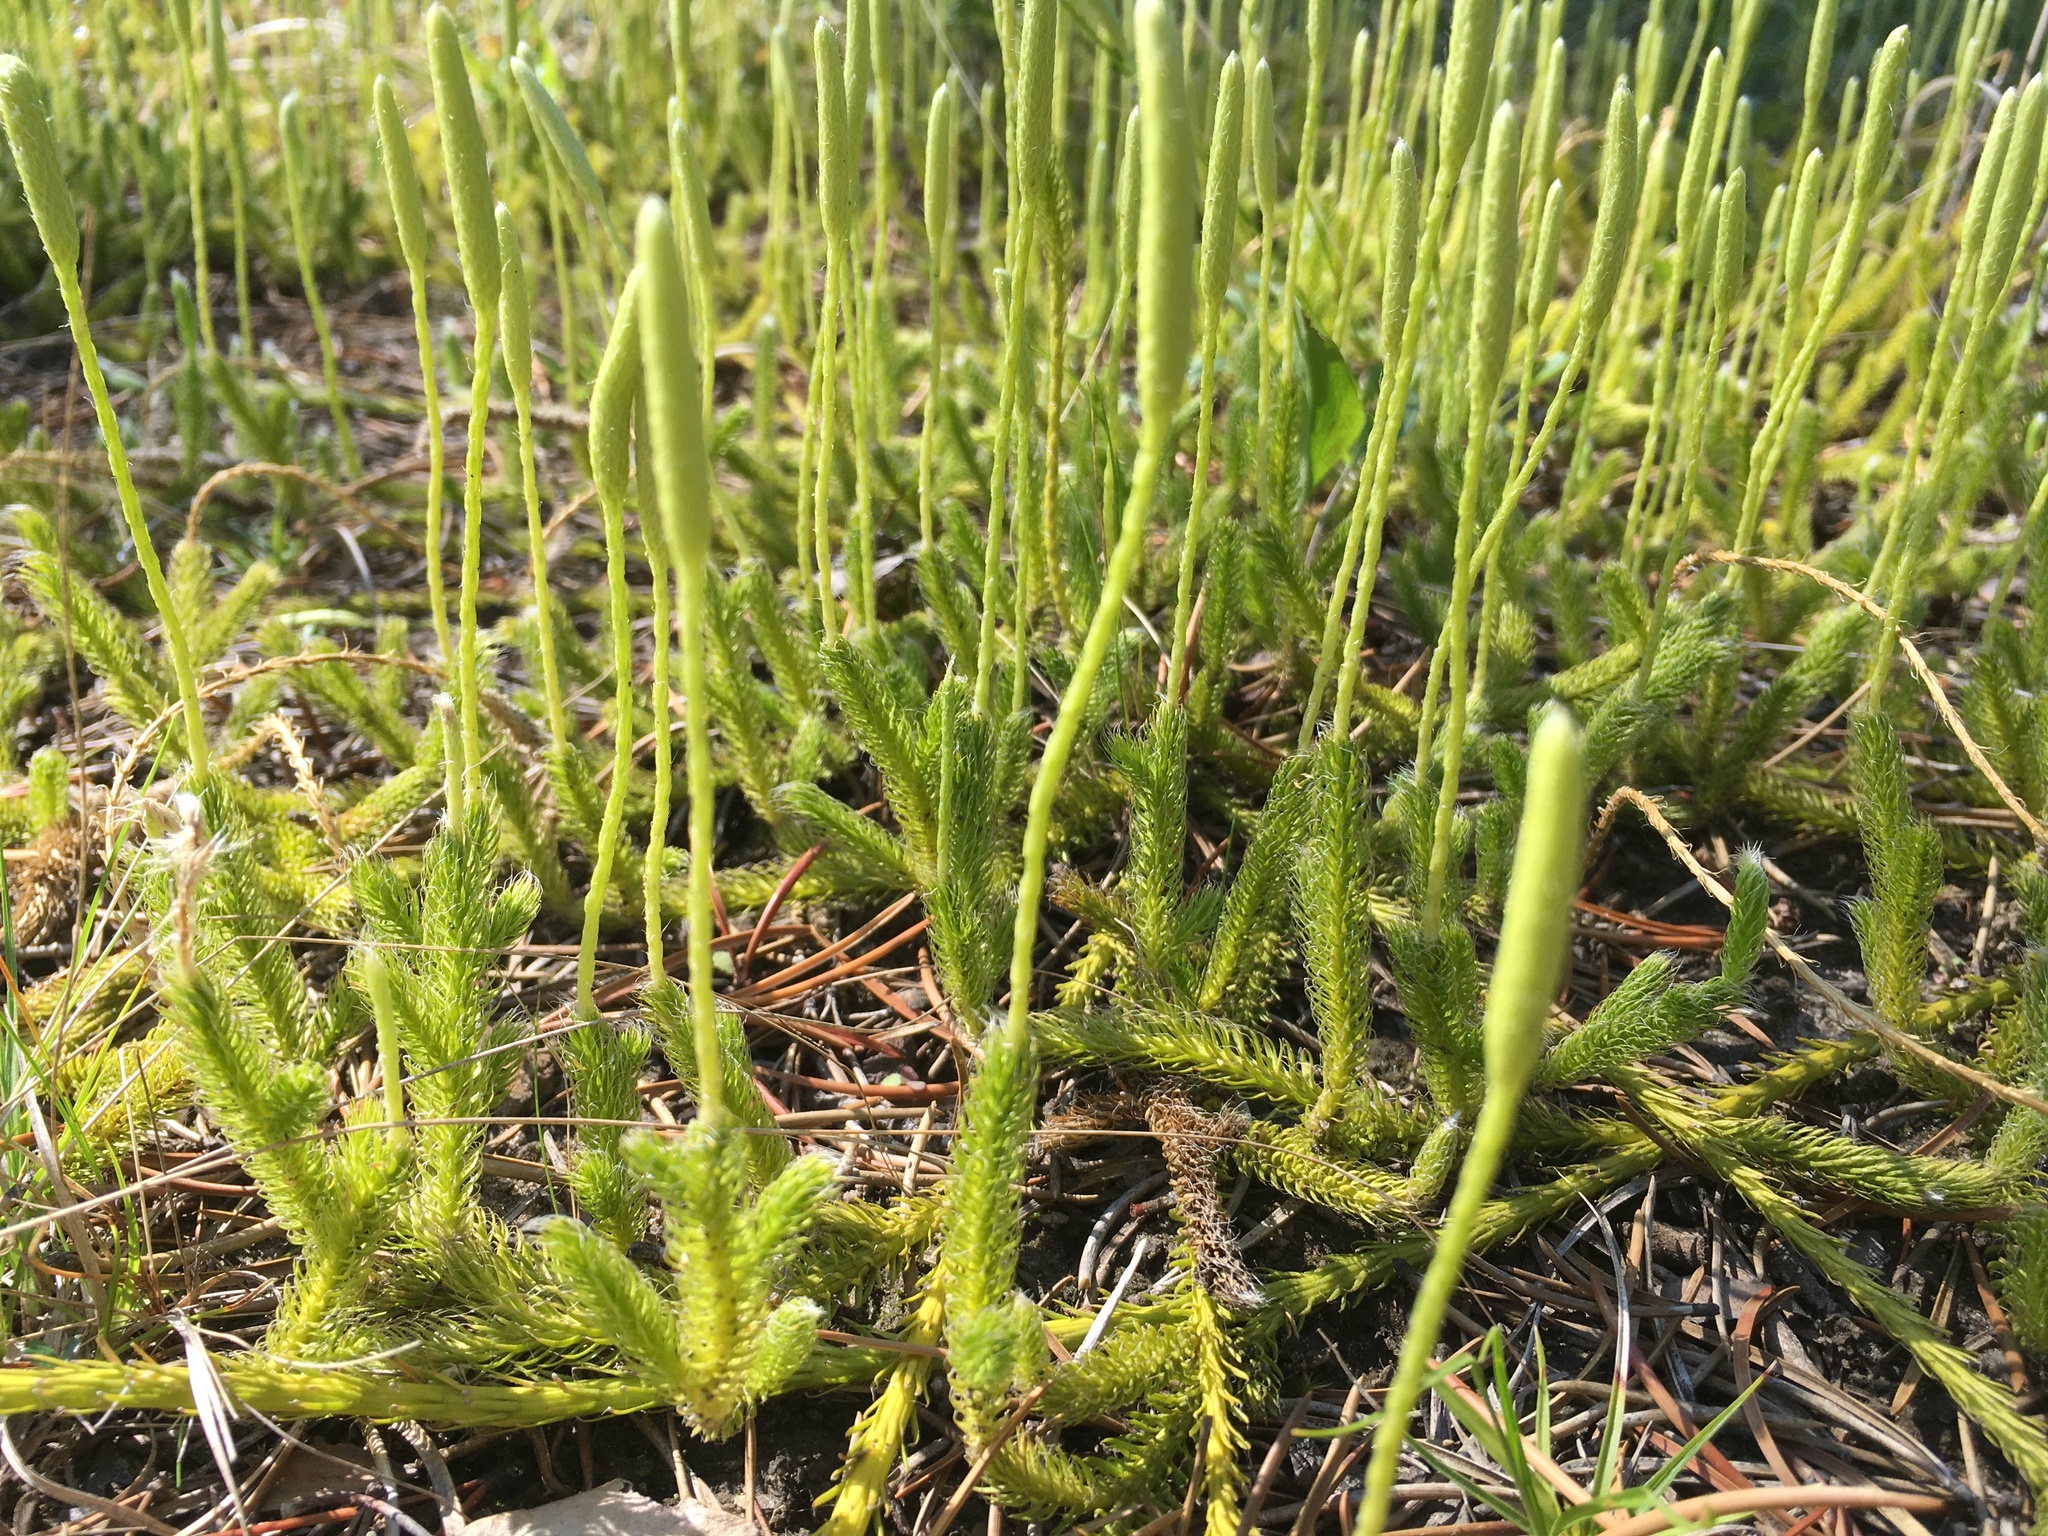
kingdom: Plantae
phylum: Tracheophyta
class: Lycopodiopsida
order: Lycopodiales
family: Lycopodiaceae
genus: Lycopodium
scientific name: Lycopodium lagopus
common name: One-cone clubmoss
